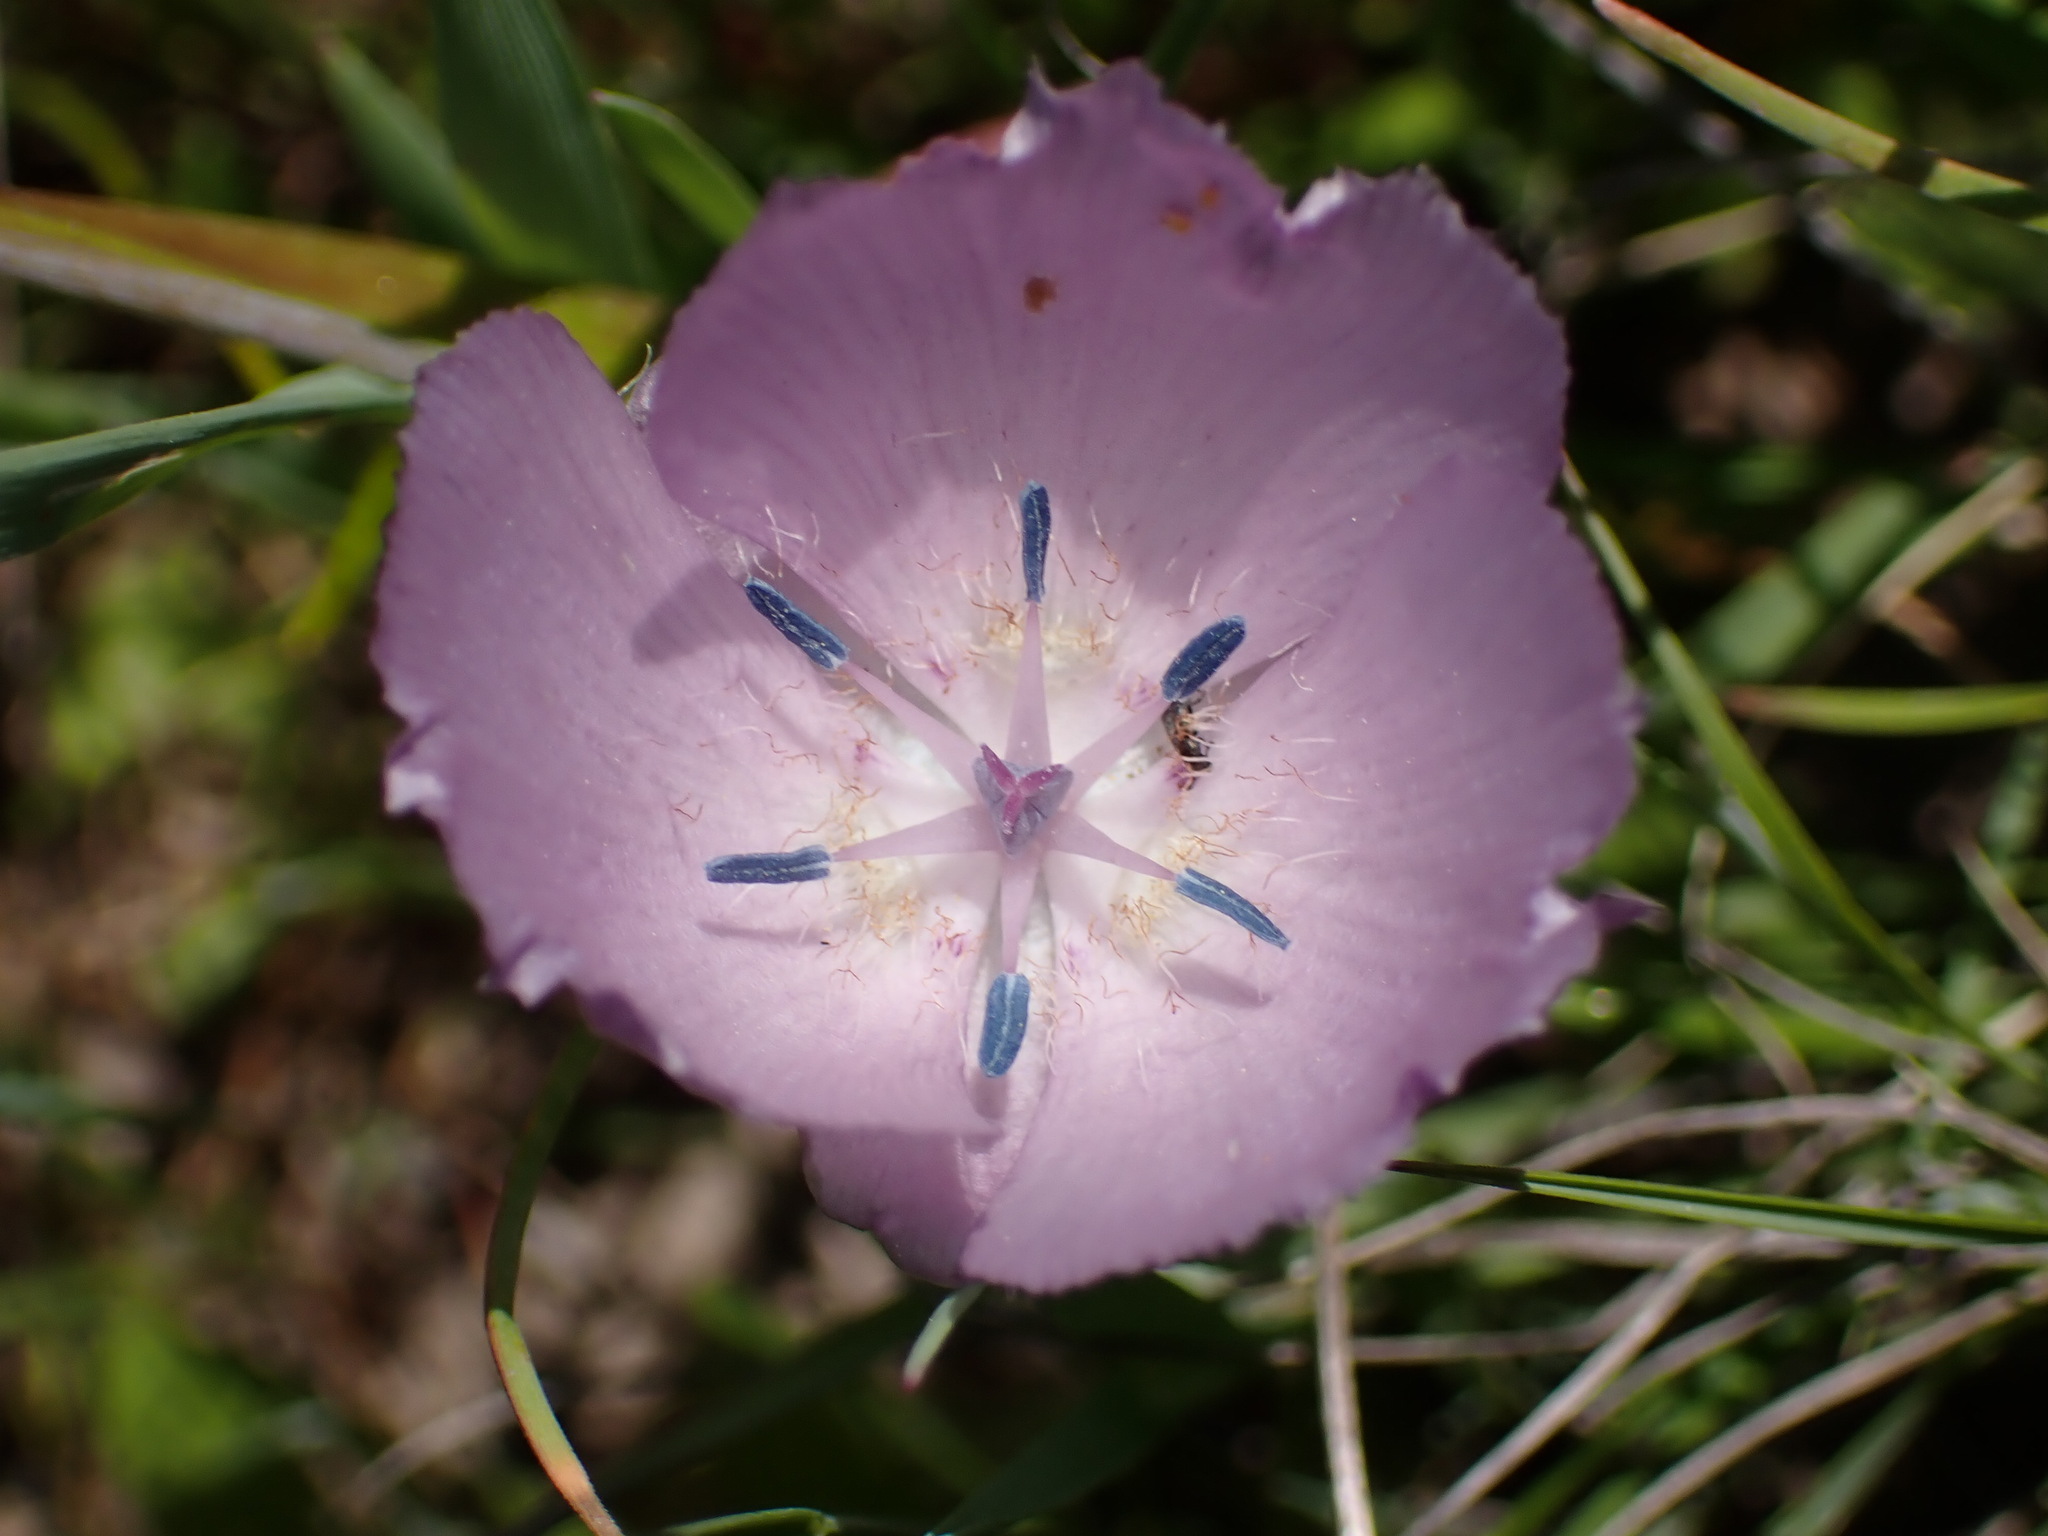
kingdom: Plantae
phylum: Tracheophyta
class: Liliopsida
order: Liliales
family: Liliaceae
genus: Calochortus
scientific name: Calochortus uniflorus
